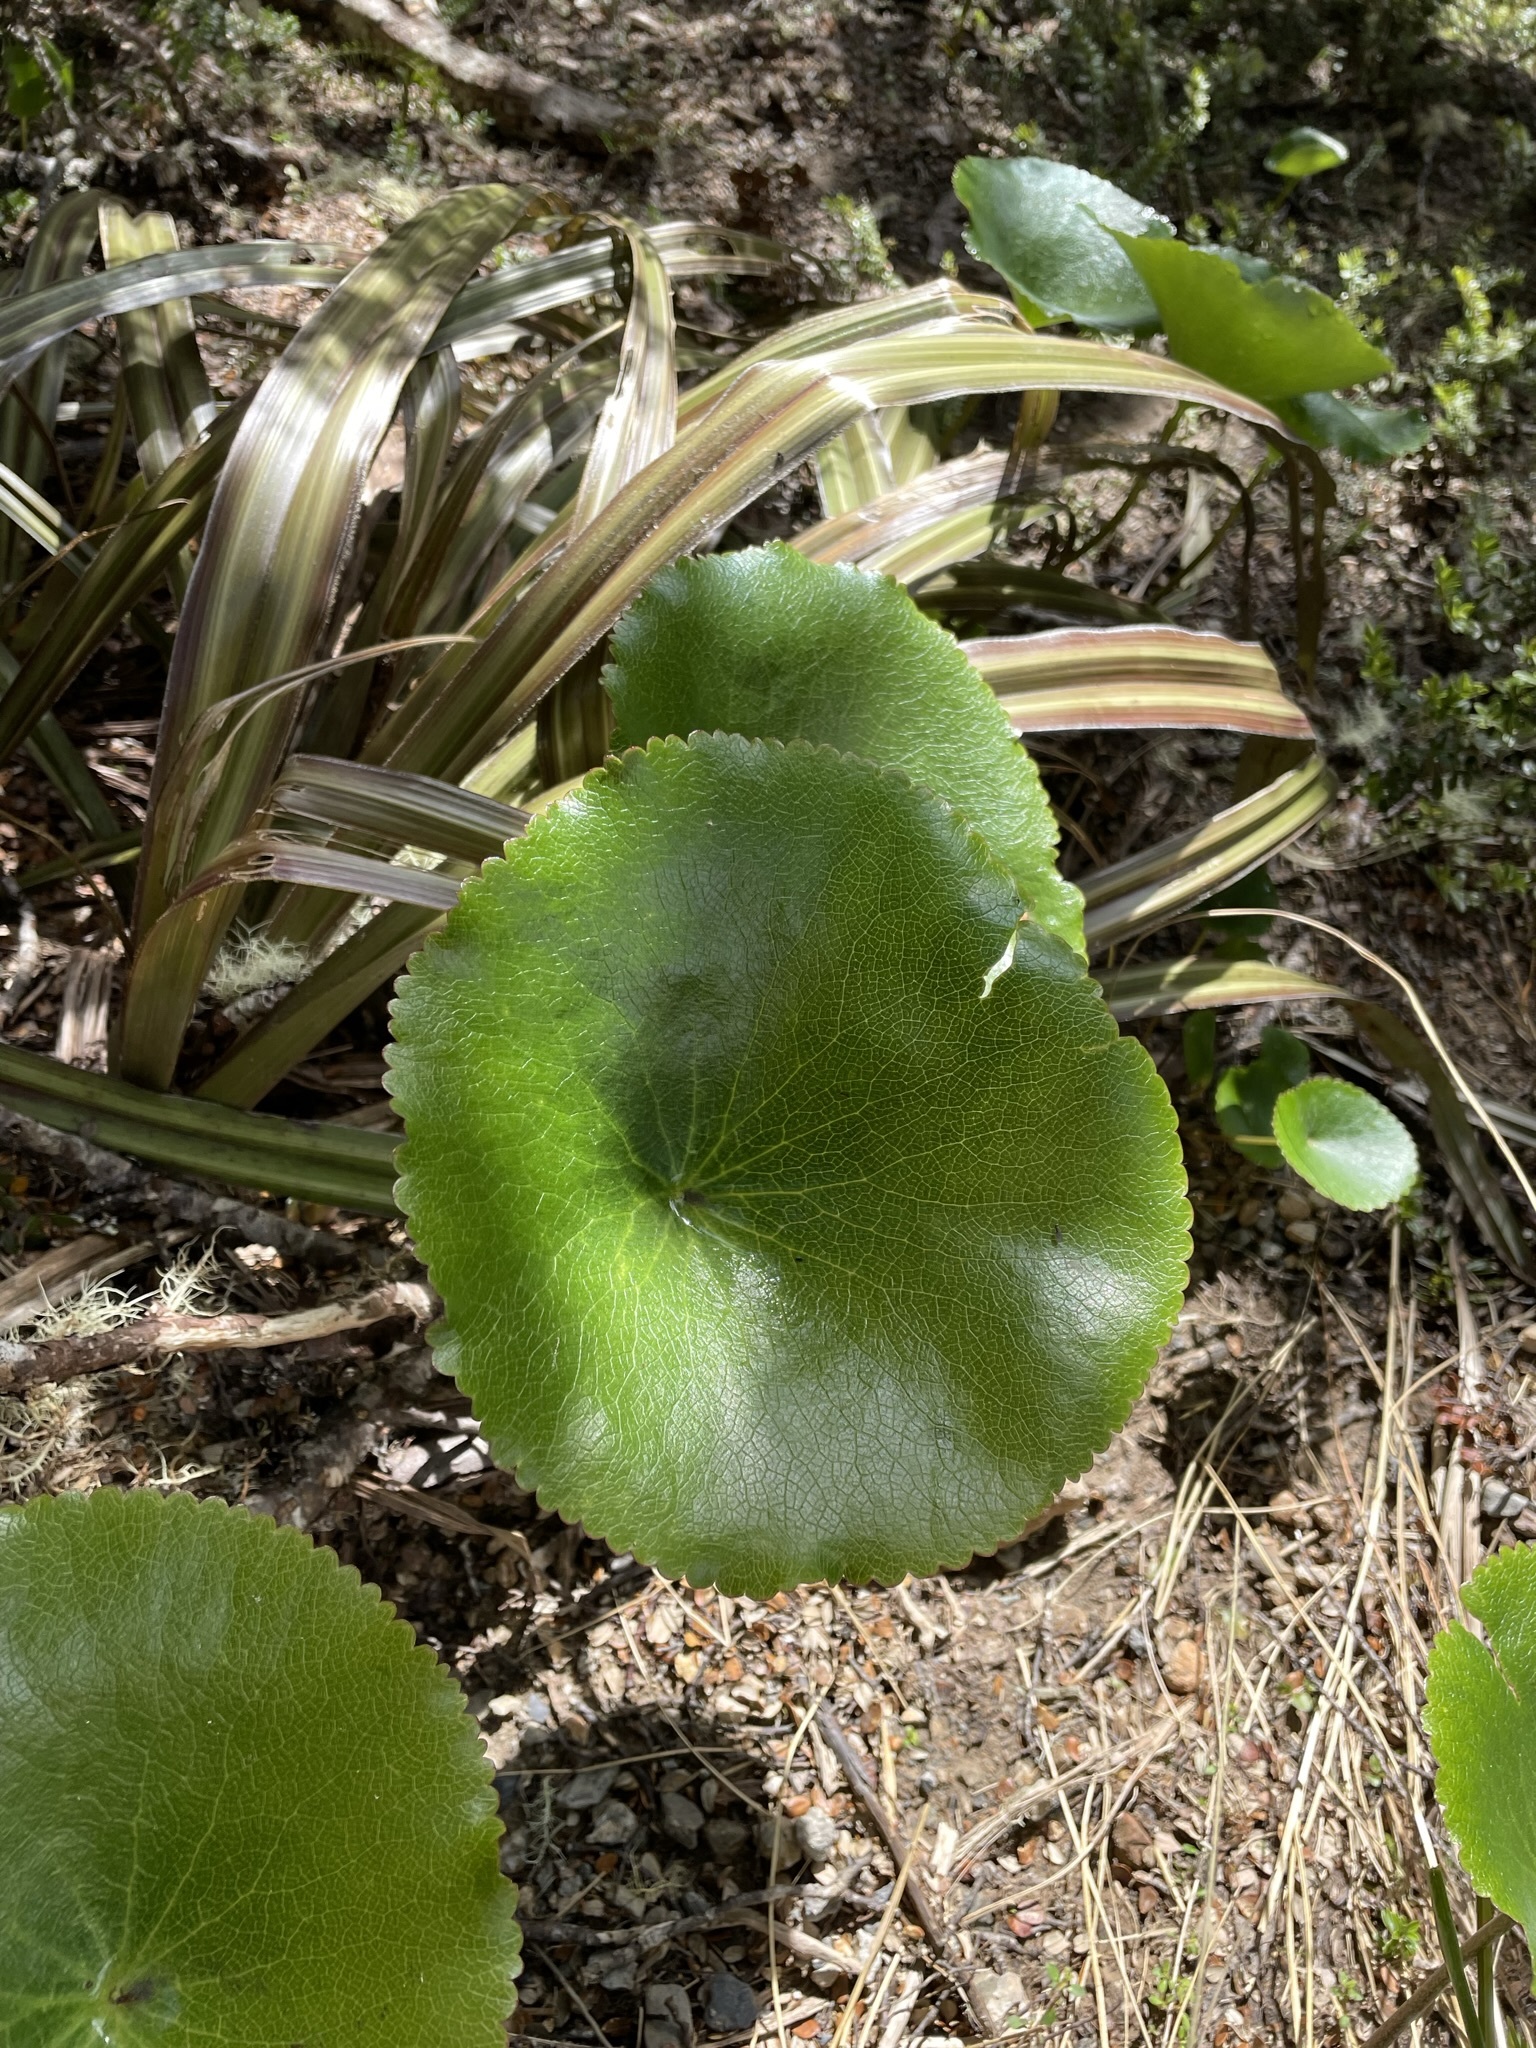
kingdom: Plantae
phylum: Tracheophyta
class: Magnoliopsida
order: Ranunculales
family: Ranunculaceae
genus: Ranunculus
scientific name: Ranunculus lyallii
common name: Mountain-lily
